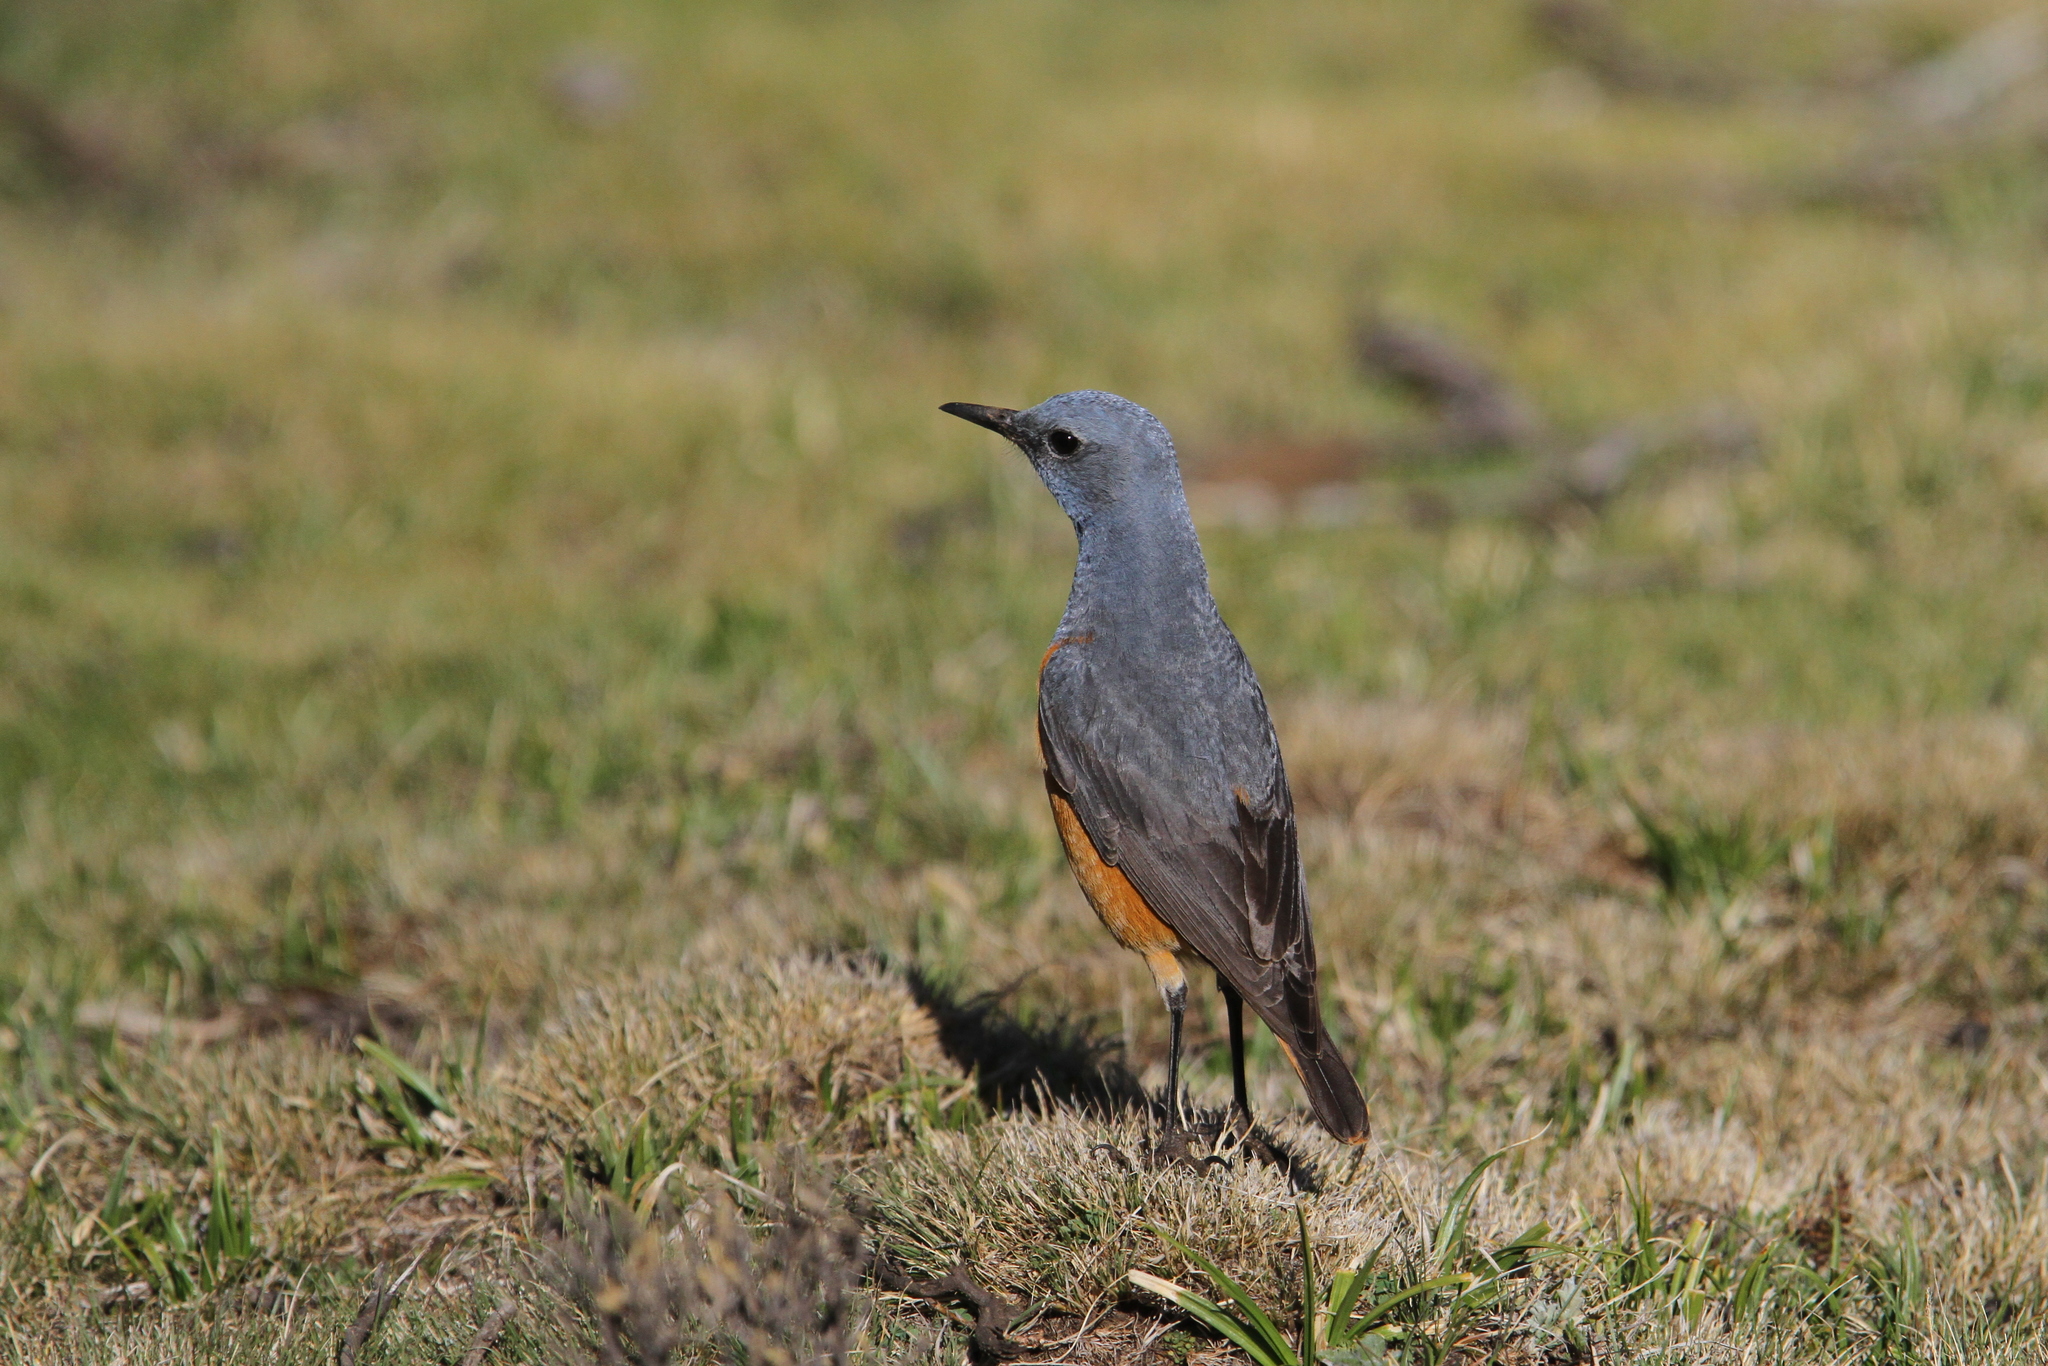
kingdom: Animalia
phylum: Chordata
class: Aves
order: Passeriformes
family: Muscicapidae
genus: Monticola
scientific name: Monticola explorator
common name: Sentinel rock thrush
